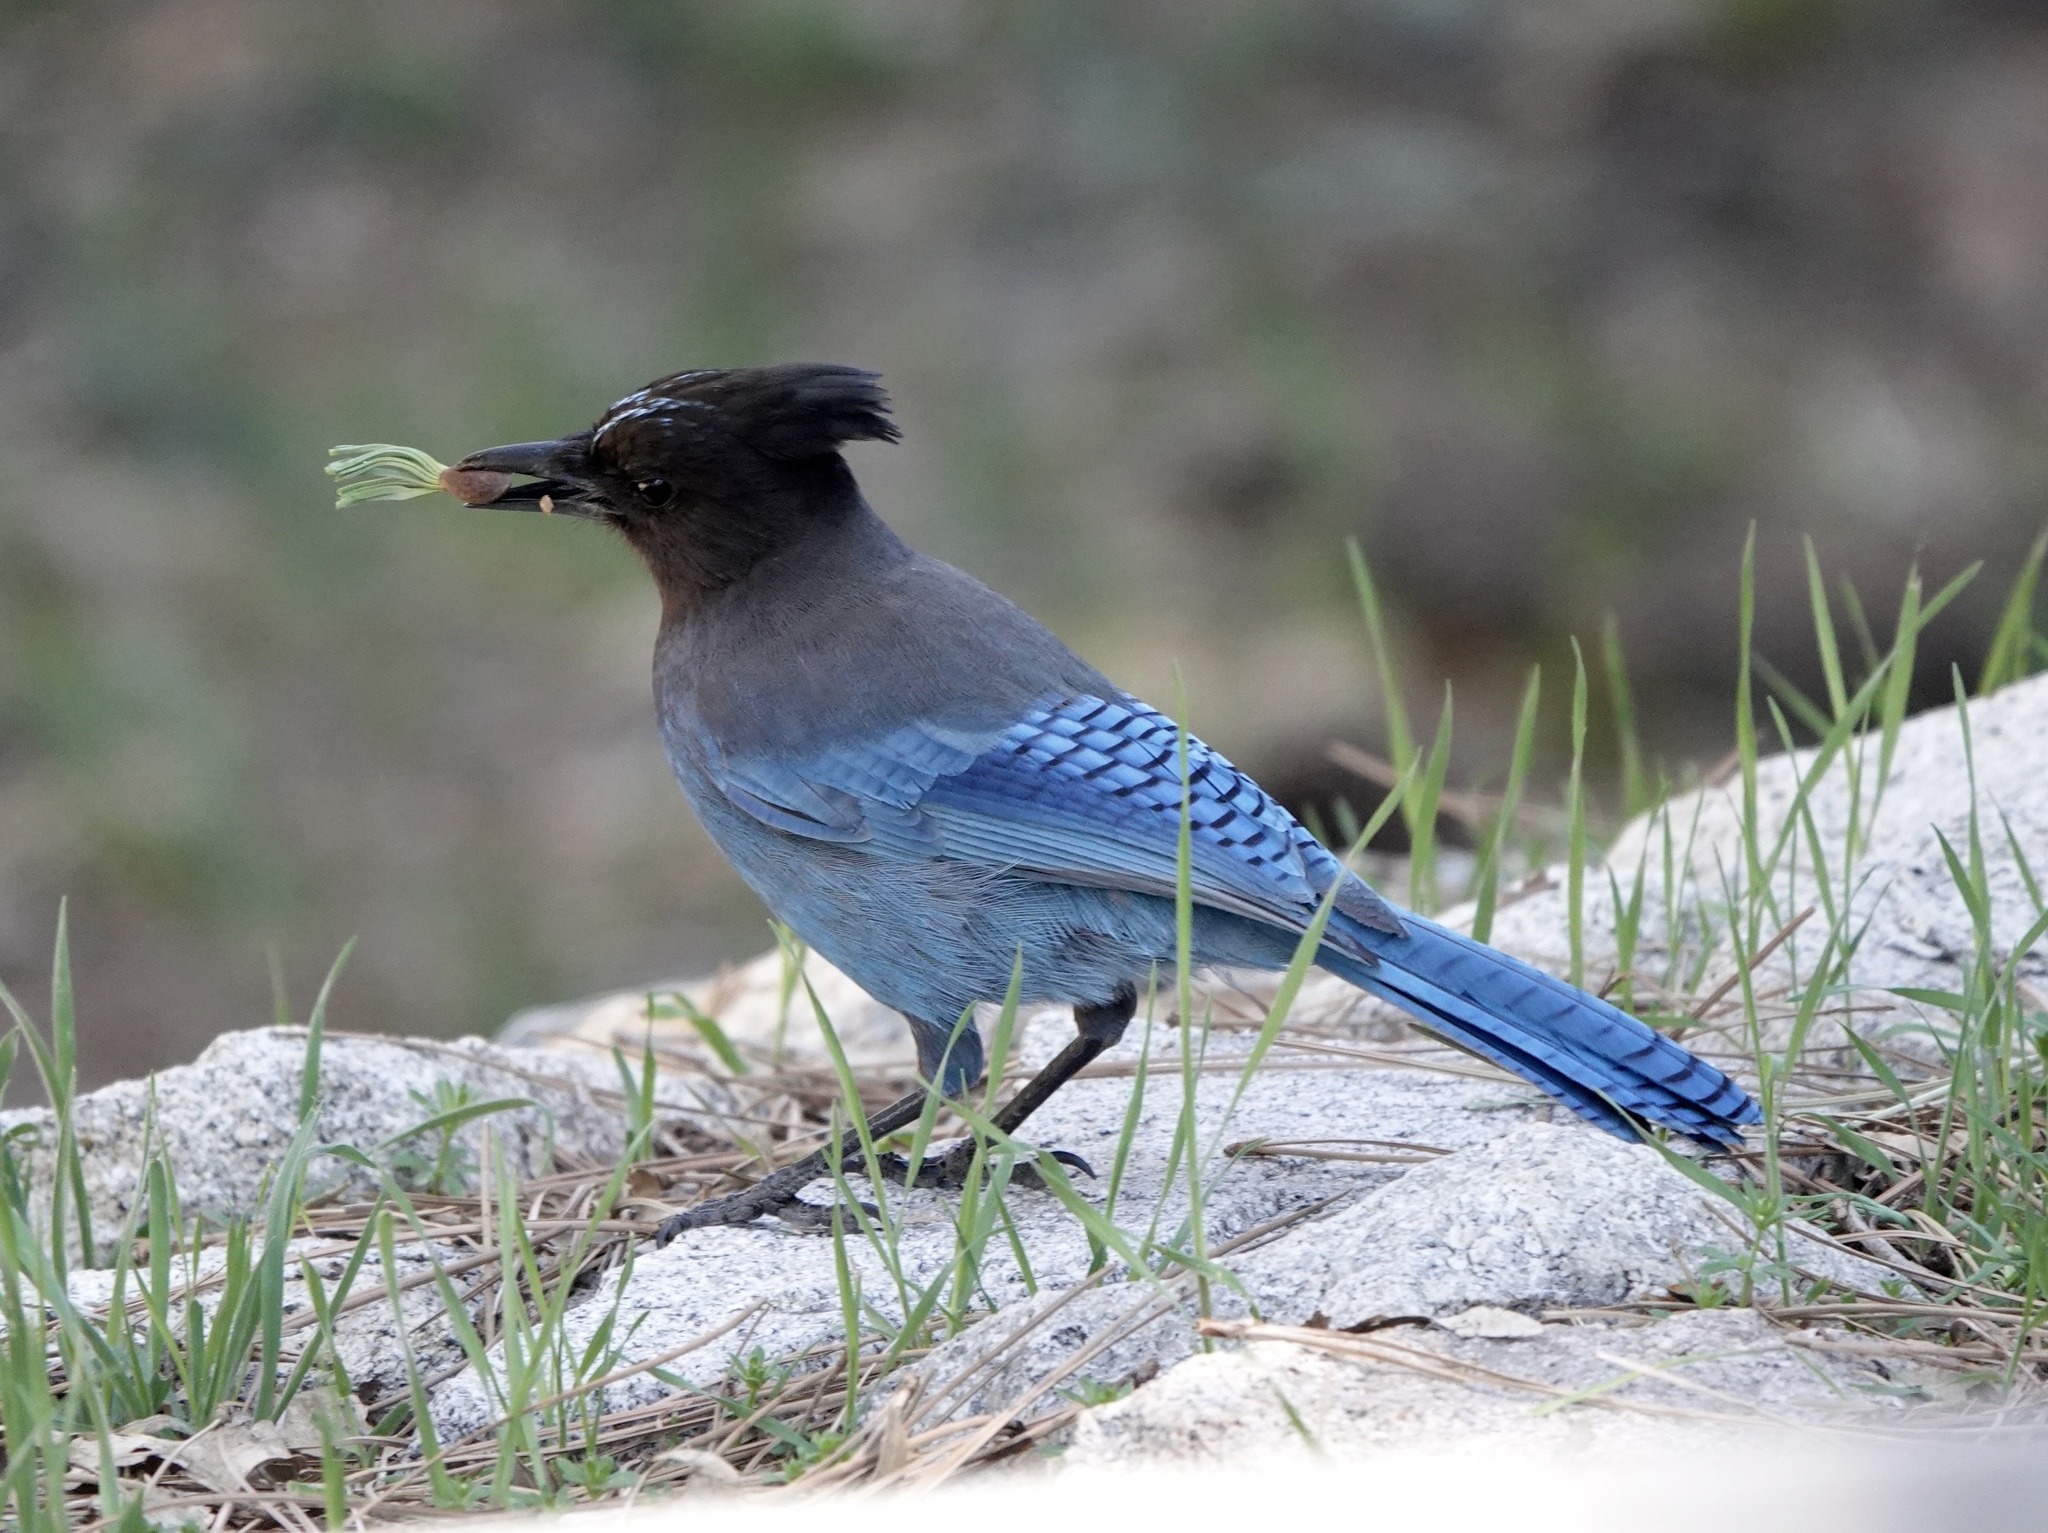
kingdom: Animalia
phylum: Chordata
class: Aves
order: Passeriformes
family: Corvidae
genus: Cyanocitta
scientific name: Cyanocitta stelleri
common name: Steller's jay
